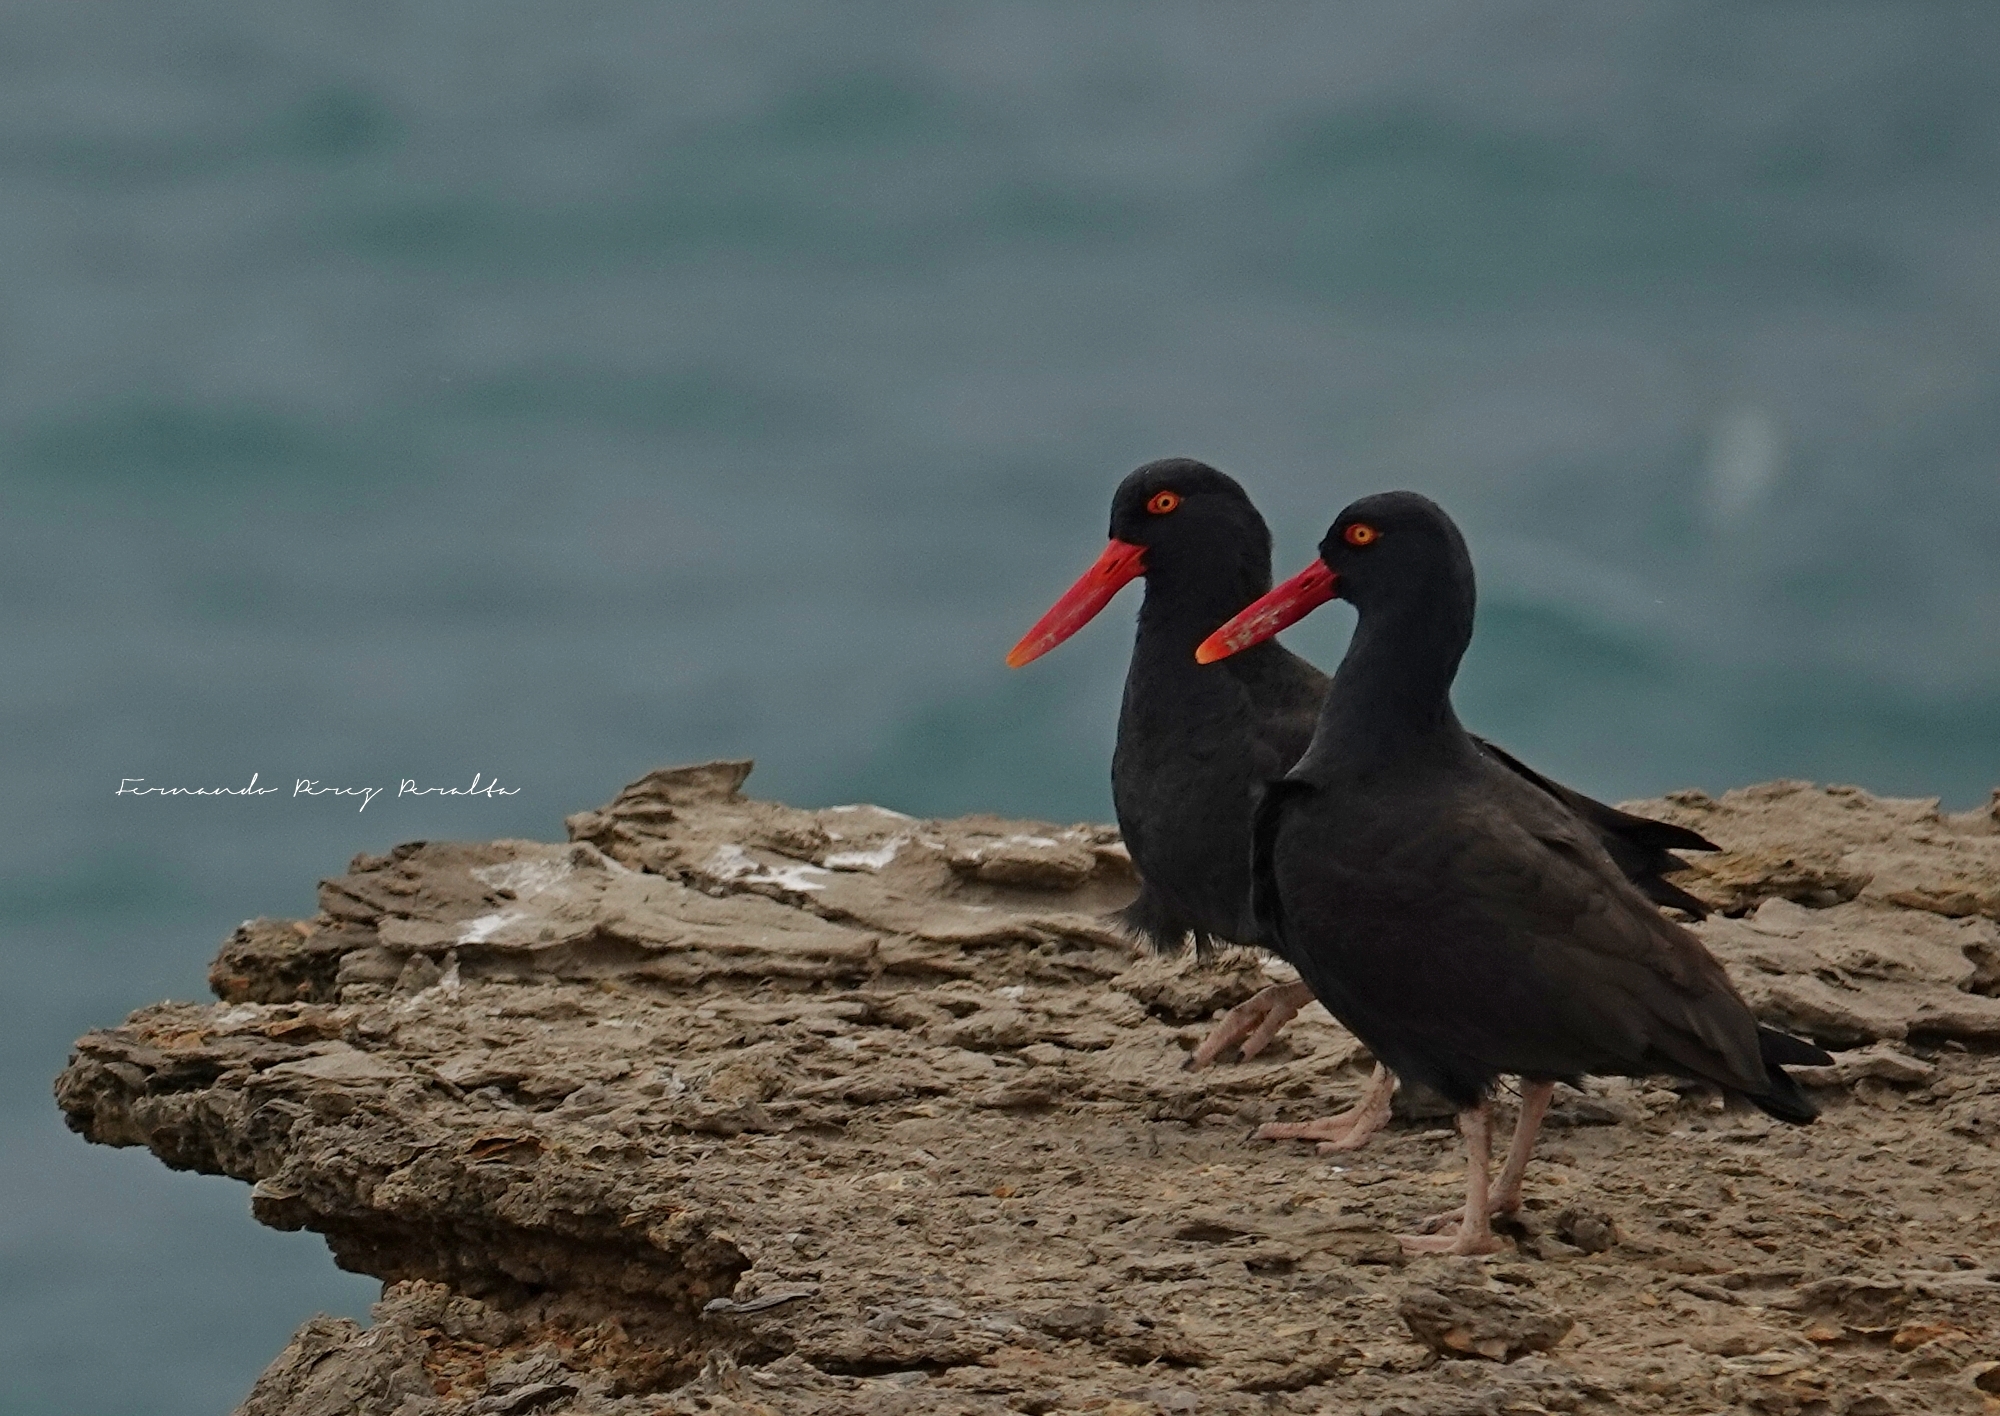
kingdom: Animalia
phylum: Chordata
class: Aves
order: Charadriiformes
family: Haematopodidae
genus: Haematopus
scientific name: Haematopus ater
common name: Blackish oystercatcher
